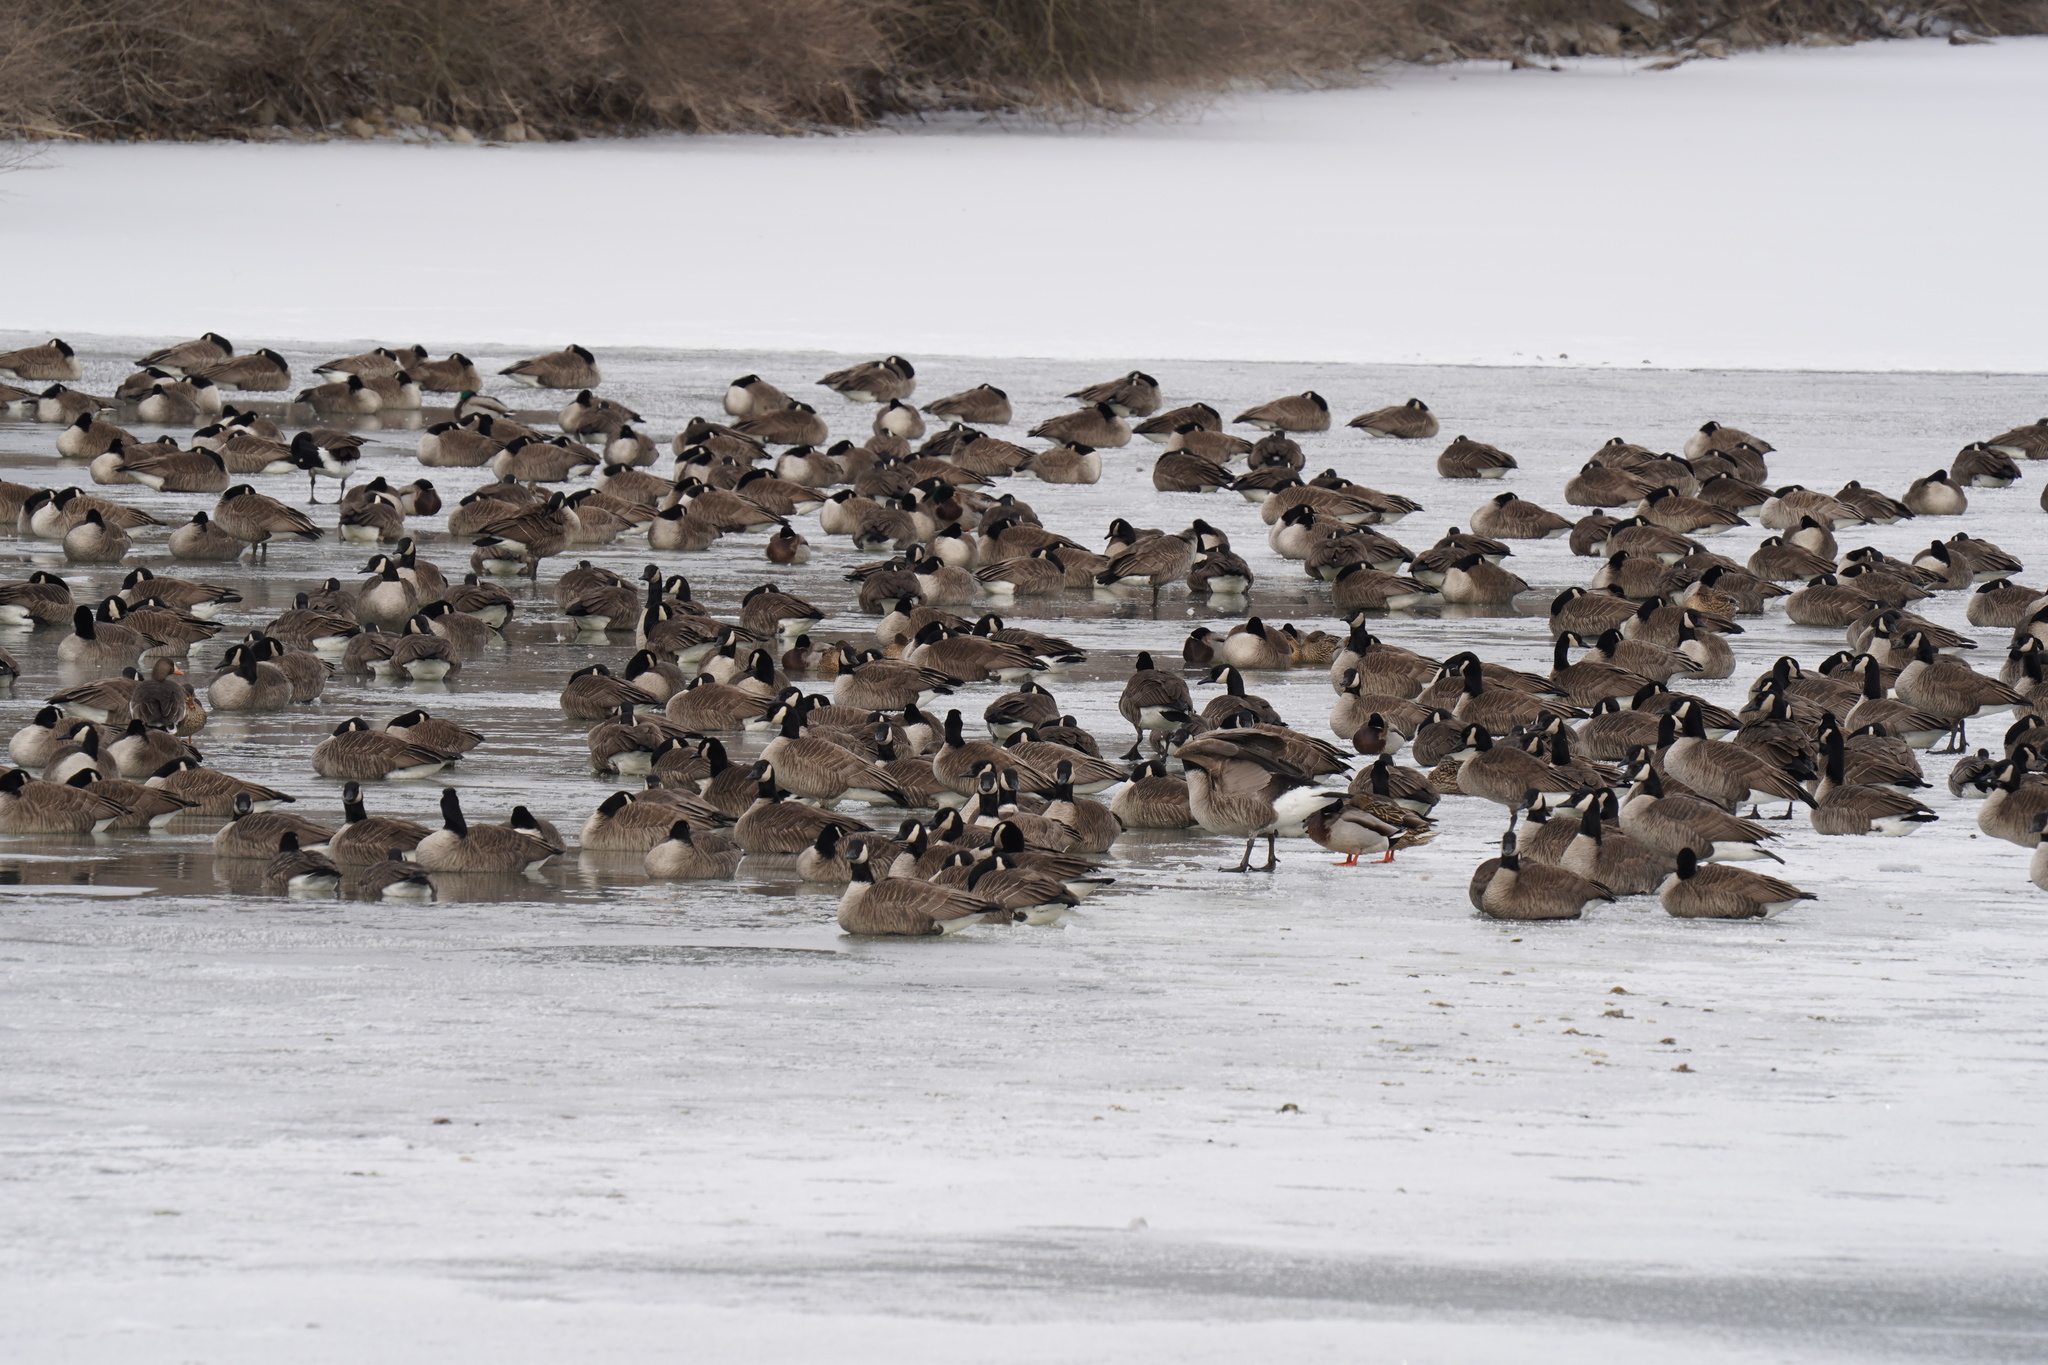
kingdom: Animalia
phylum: Chordata
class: Aves
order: Anseriformes
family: Anatidae
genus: Anas
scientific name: Anas platyrhynchos
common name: Mallard
